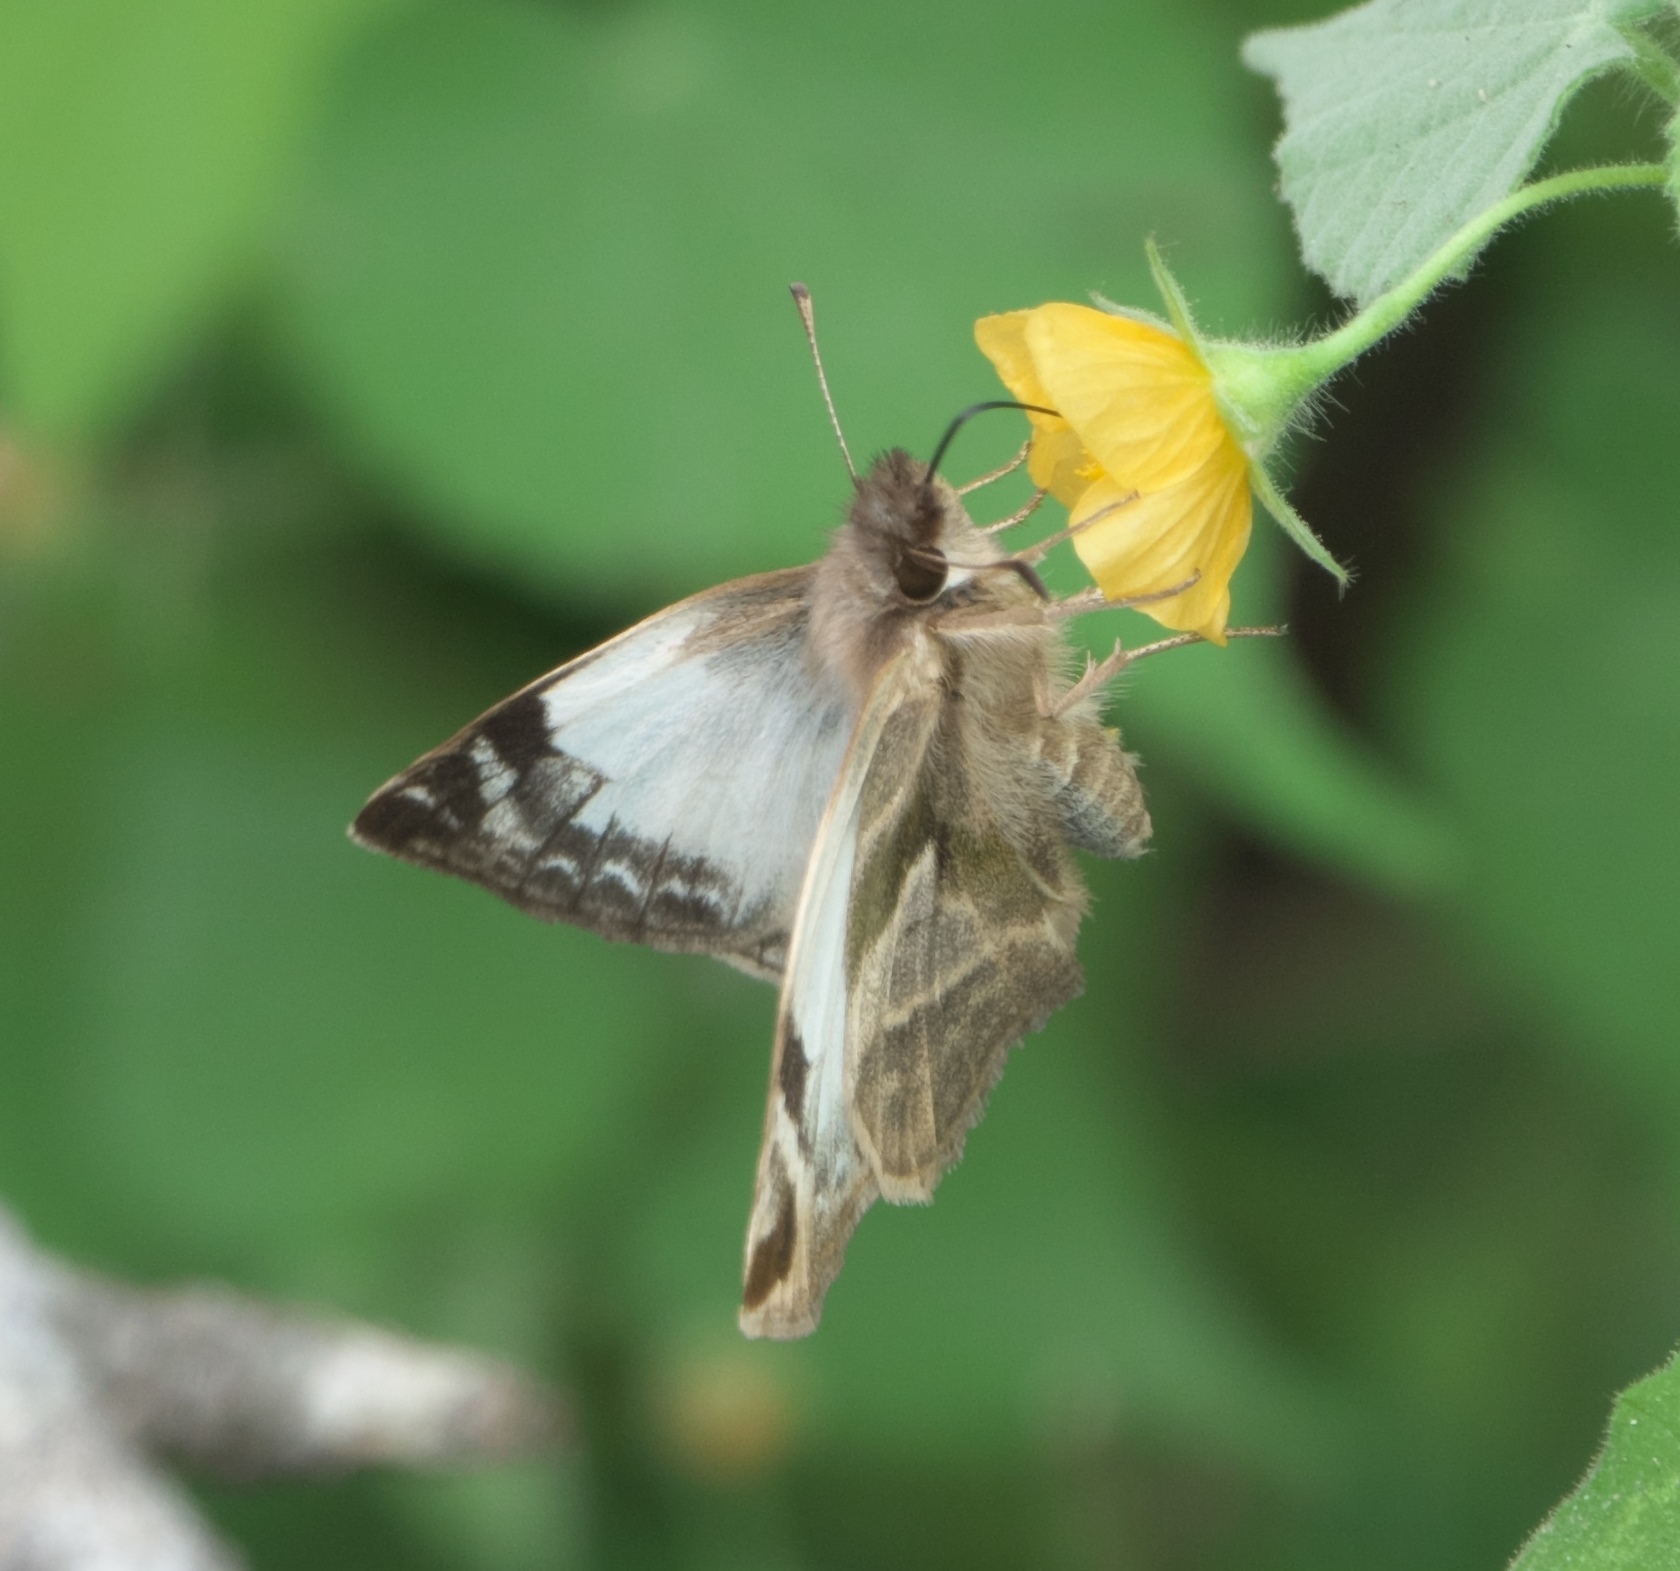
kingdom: Animalia
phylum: Arthropoda
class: Insecta
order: Lepidoptera
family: Hesperiidae
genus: Heliopetes
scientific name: Heliopetes laviana
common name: Laviana white-skipper
